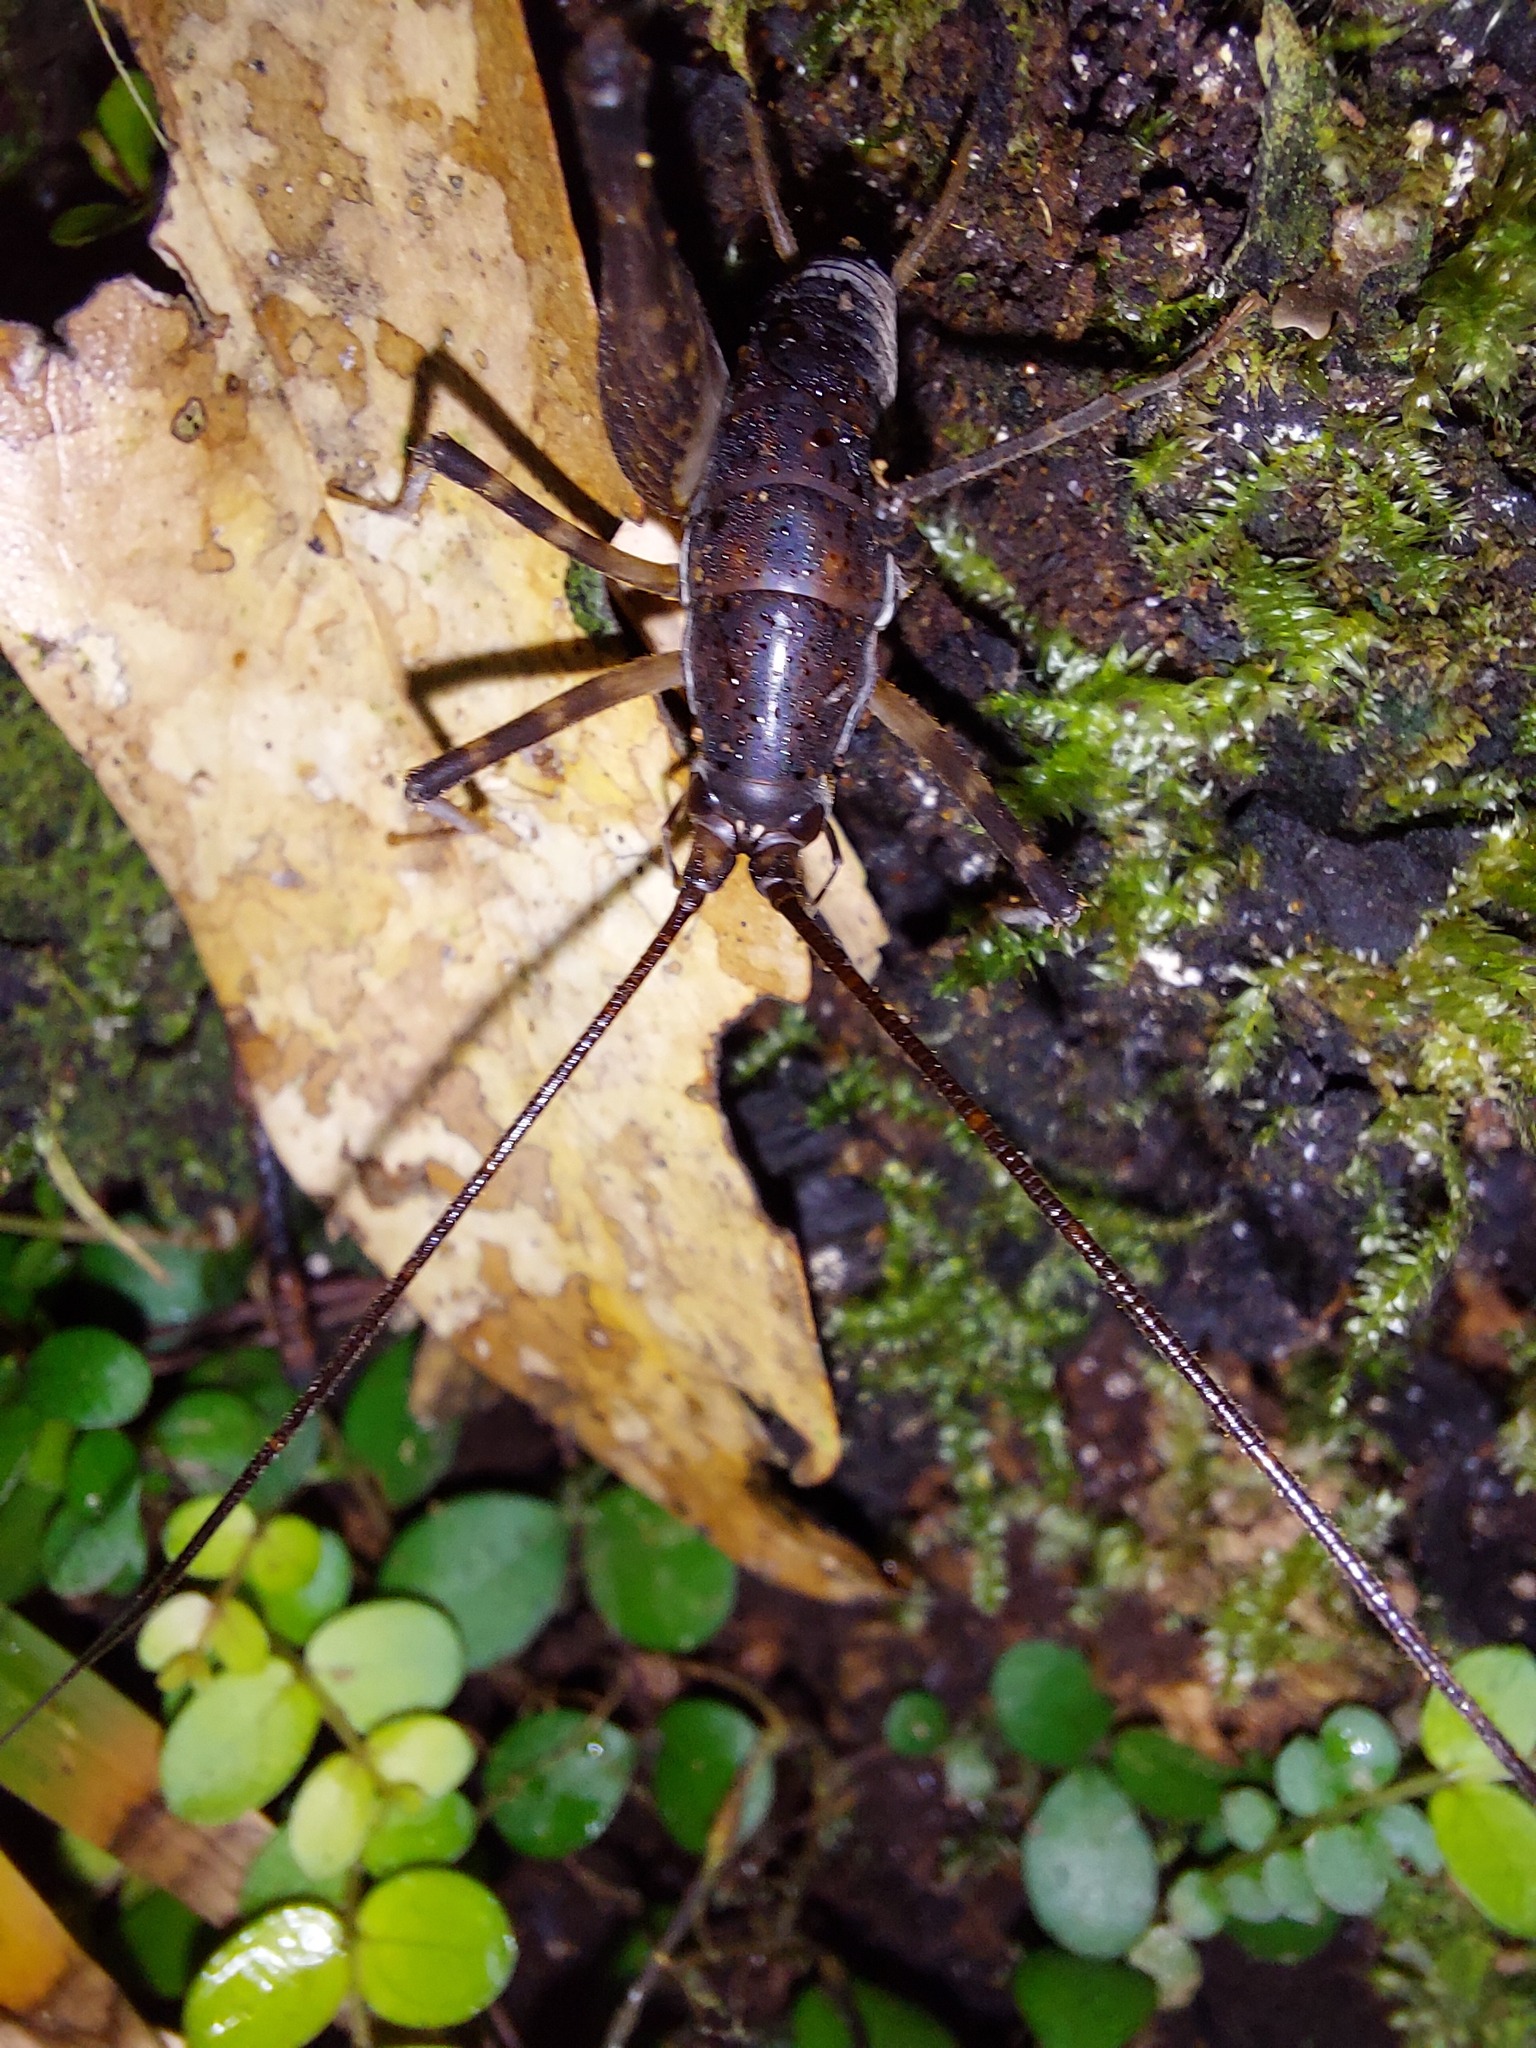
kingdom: Animalia
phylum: Arthropoda
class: Insecta
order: Orthoptera
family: Rhaphidophoridae
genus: Miotopus
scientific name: Miotopus diversus
